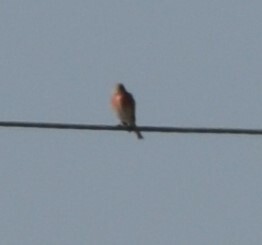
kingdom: Animalia
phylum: Chordata
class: Aves
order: Passeriformes
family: Fringillidae
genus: Linaria
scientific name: Linaria cannabina
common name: Common linnet
